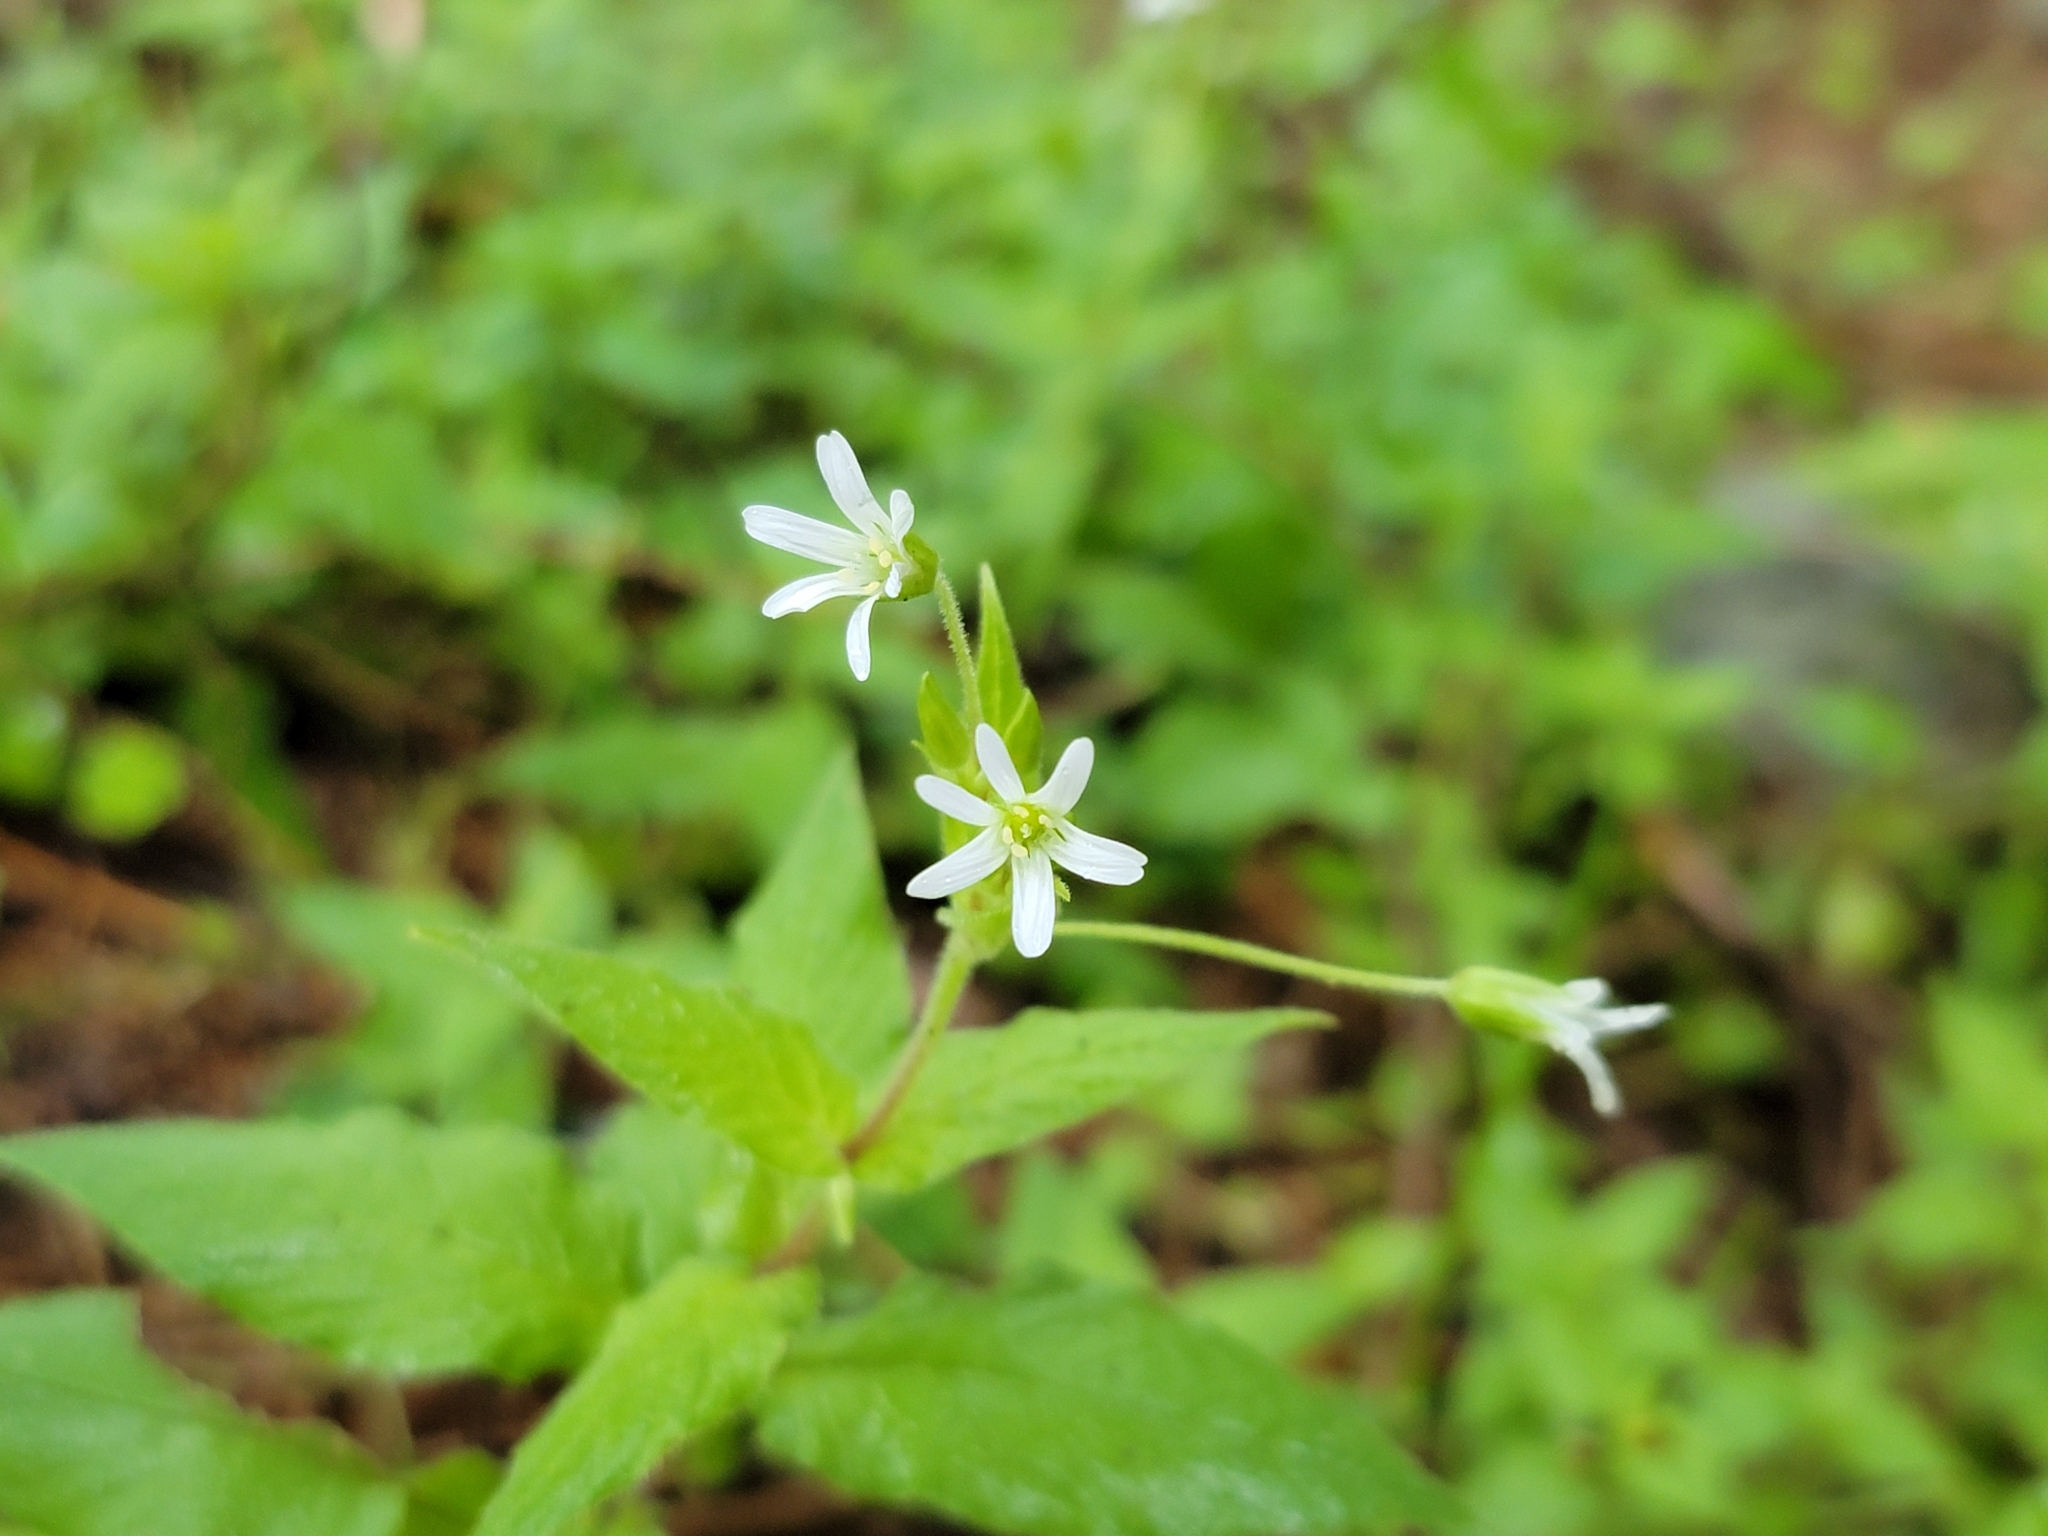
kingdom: Plantae
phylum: Tracheophyta
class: Magnoliopsida
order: Caryophyllales
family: Caryophyllaceae
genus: Stellaria
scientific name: Stellaria nemorum
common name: Wood stitchwort
